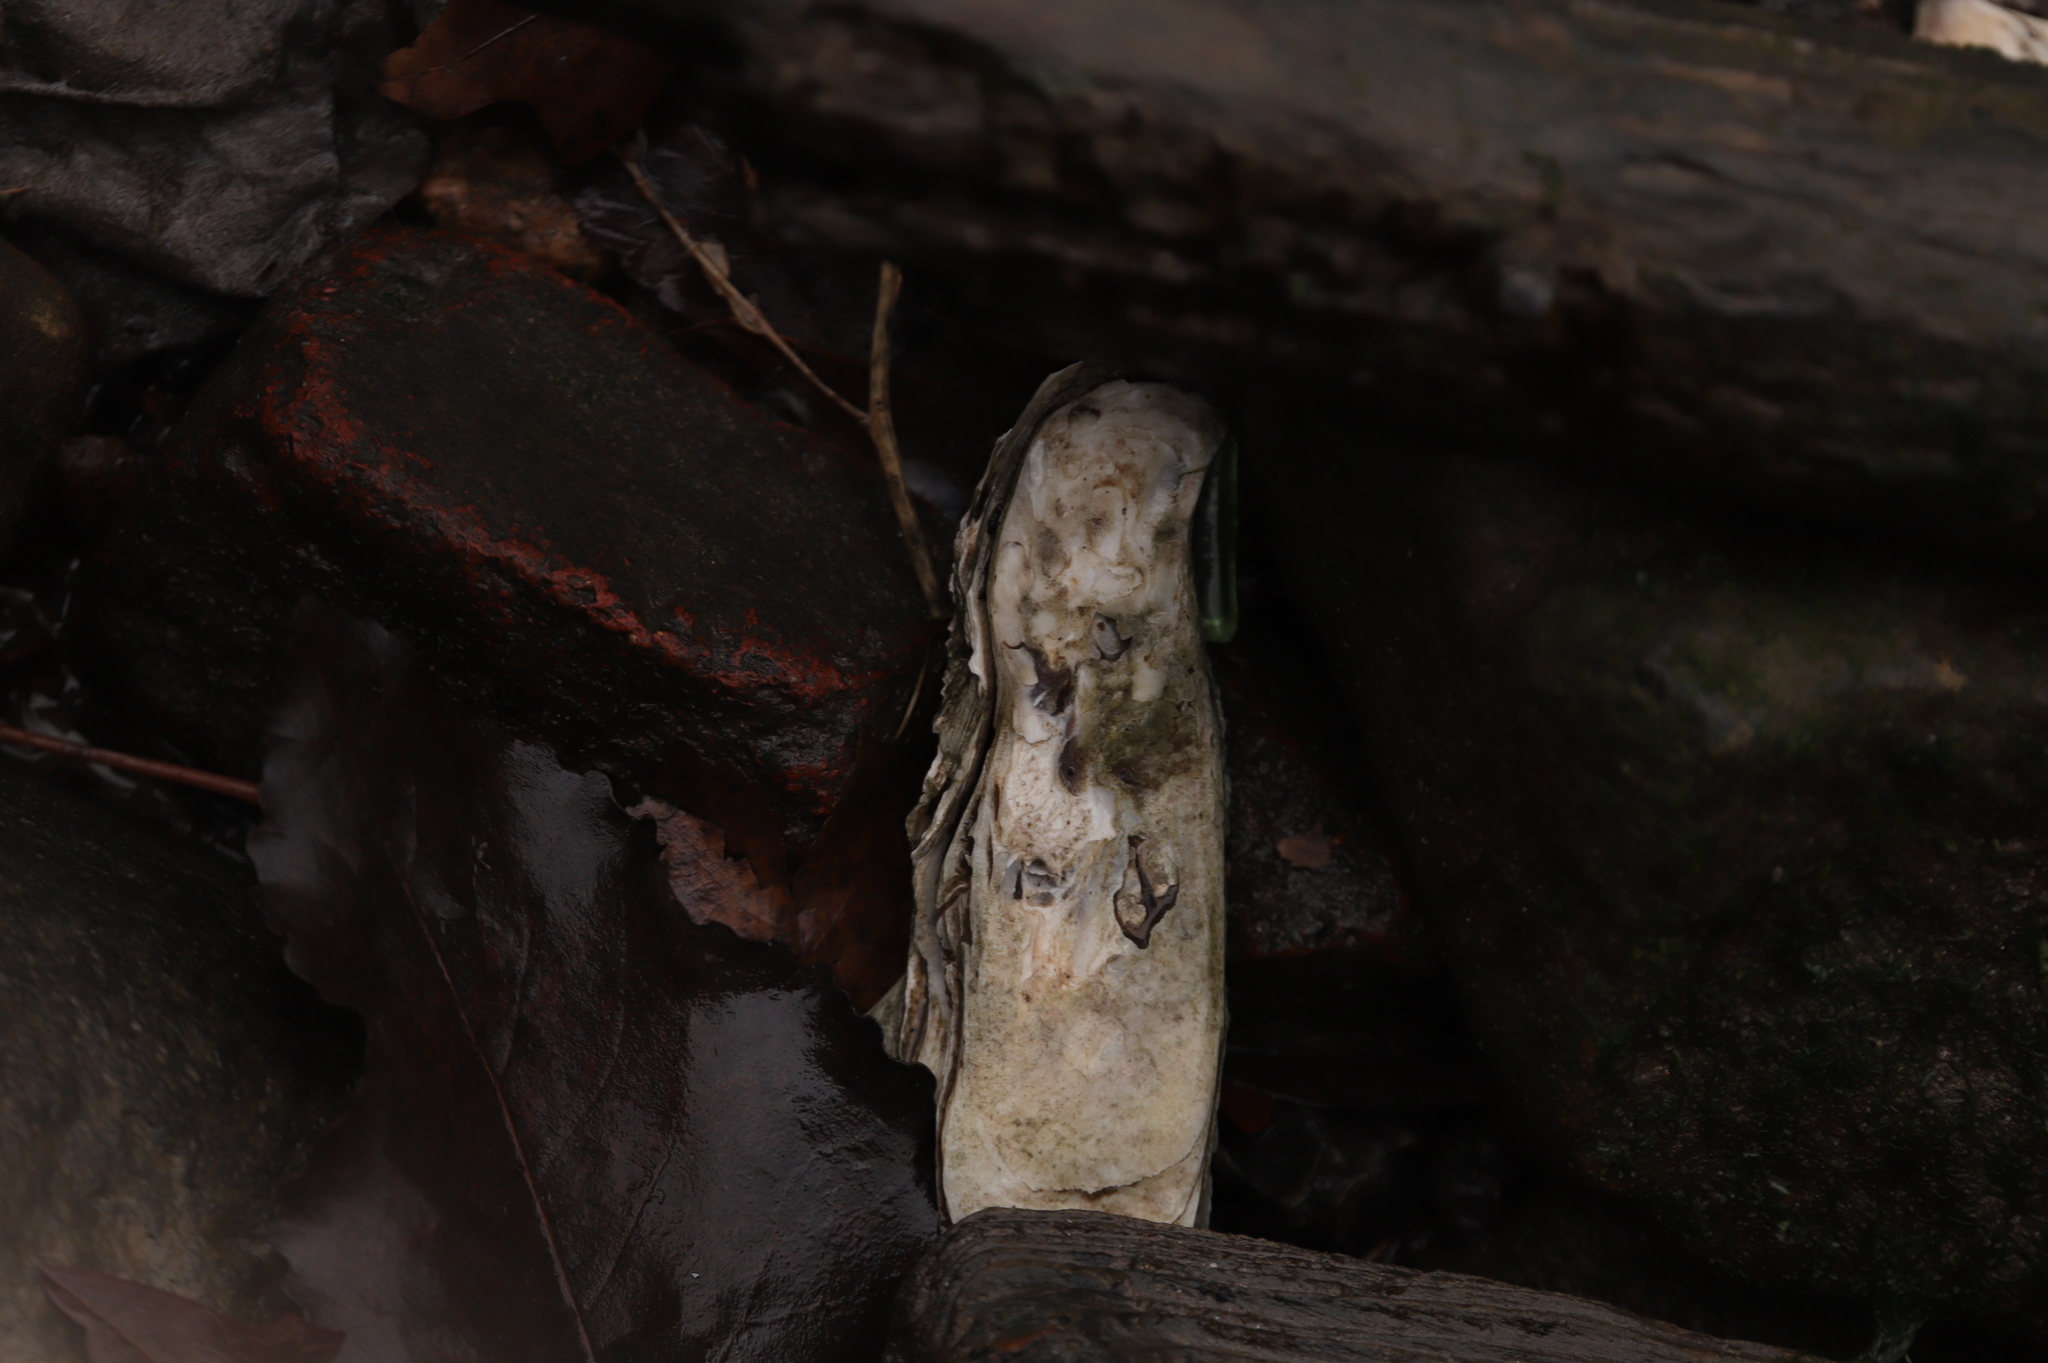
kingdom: Animalia
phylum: Mollusca
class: Bivalvia
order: Ostreida
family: Ostreidae
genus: Crassostrea
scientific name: Crassostrea virginica
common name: American oyster
